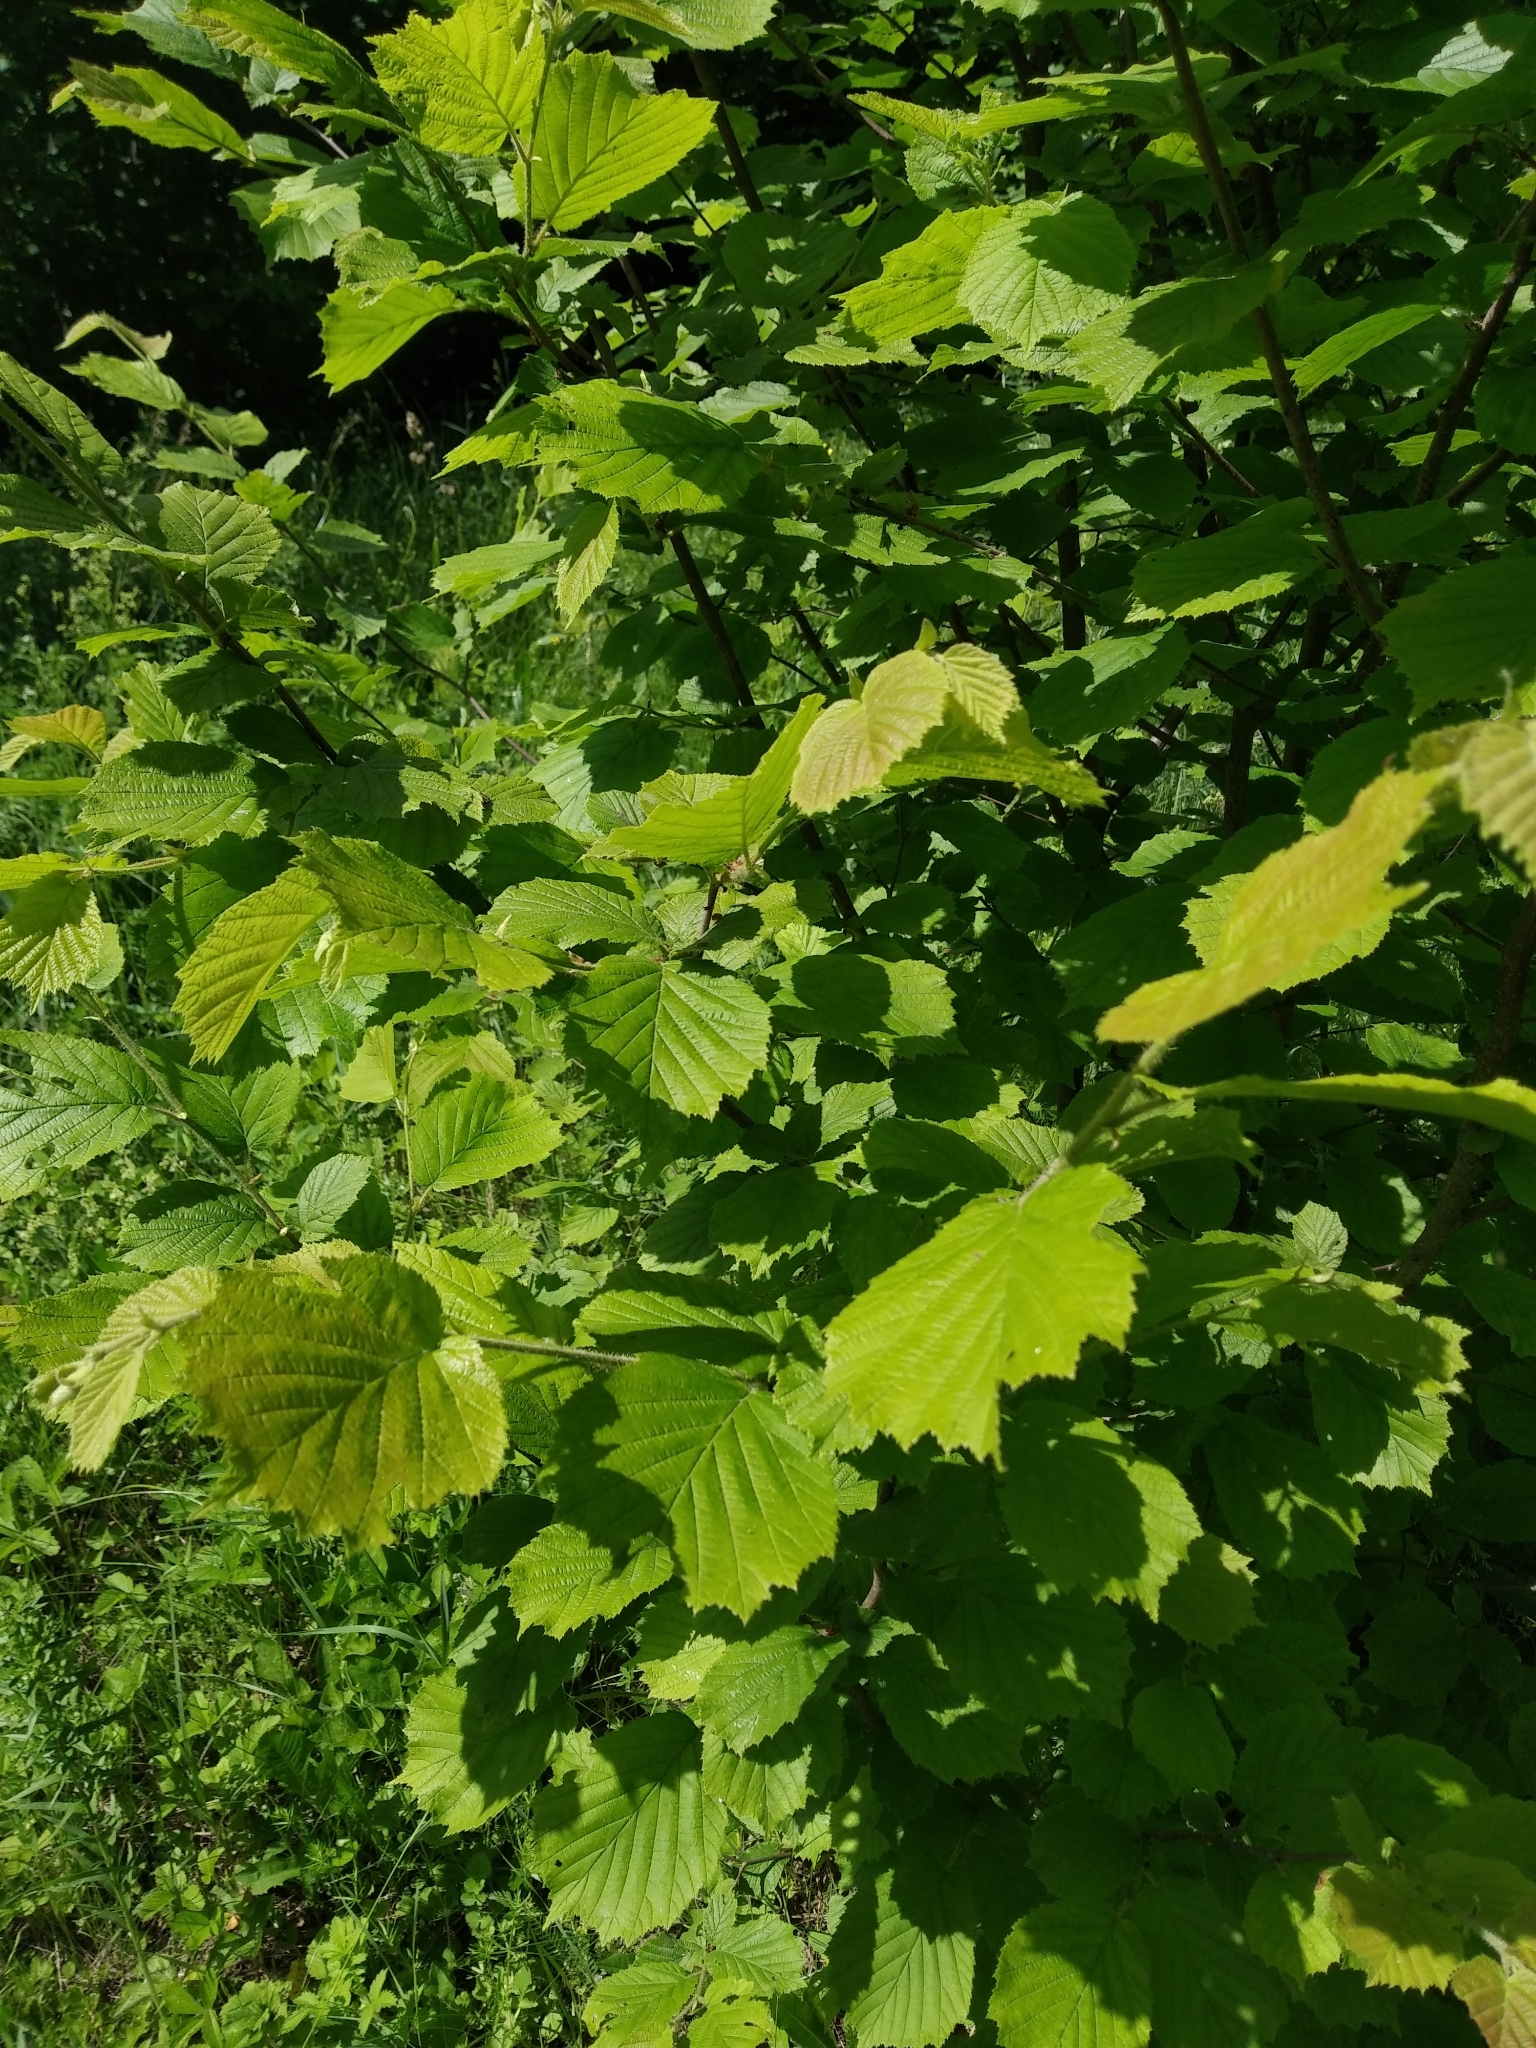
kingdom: Plantae
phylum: Tracheophyta
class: Magnoliopsida
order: Fagales
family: Betulaceae
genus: Corylus
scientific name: Corylus avellana
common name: European hazel
